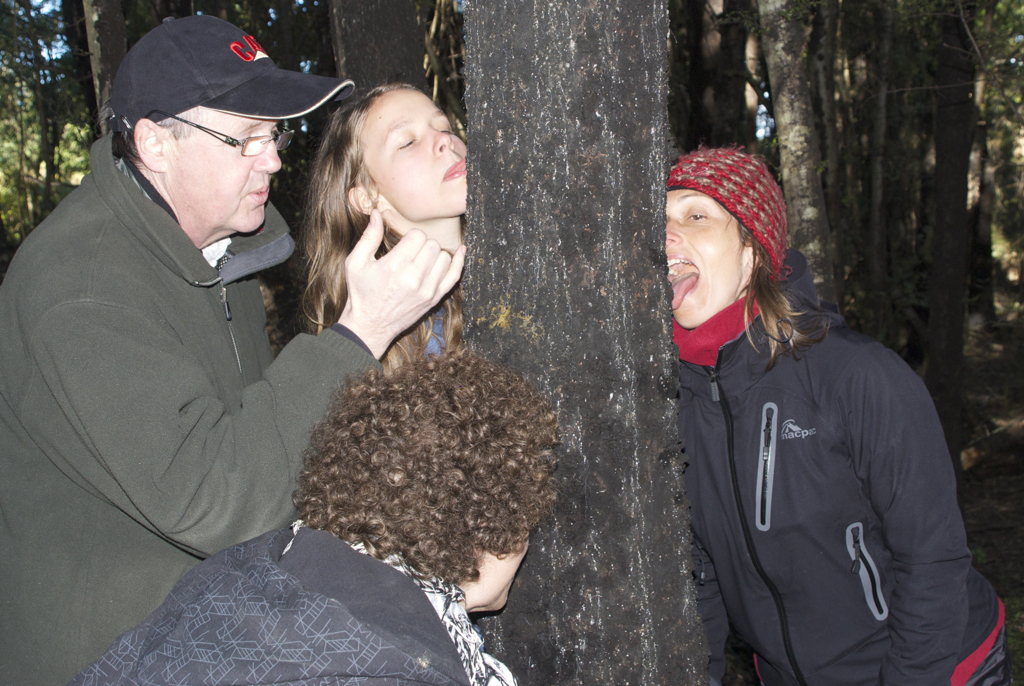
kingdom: Animalia
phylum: Arthropoda
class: Insecta
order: Hemiptera
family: Margarodidae
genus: Ultracoelostoma
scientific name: Ultracoelostoma
